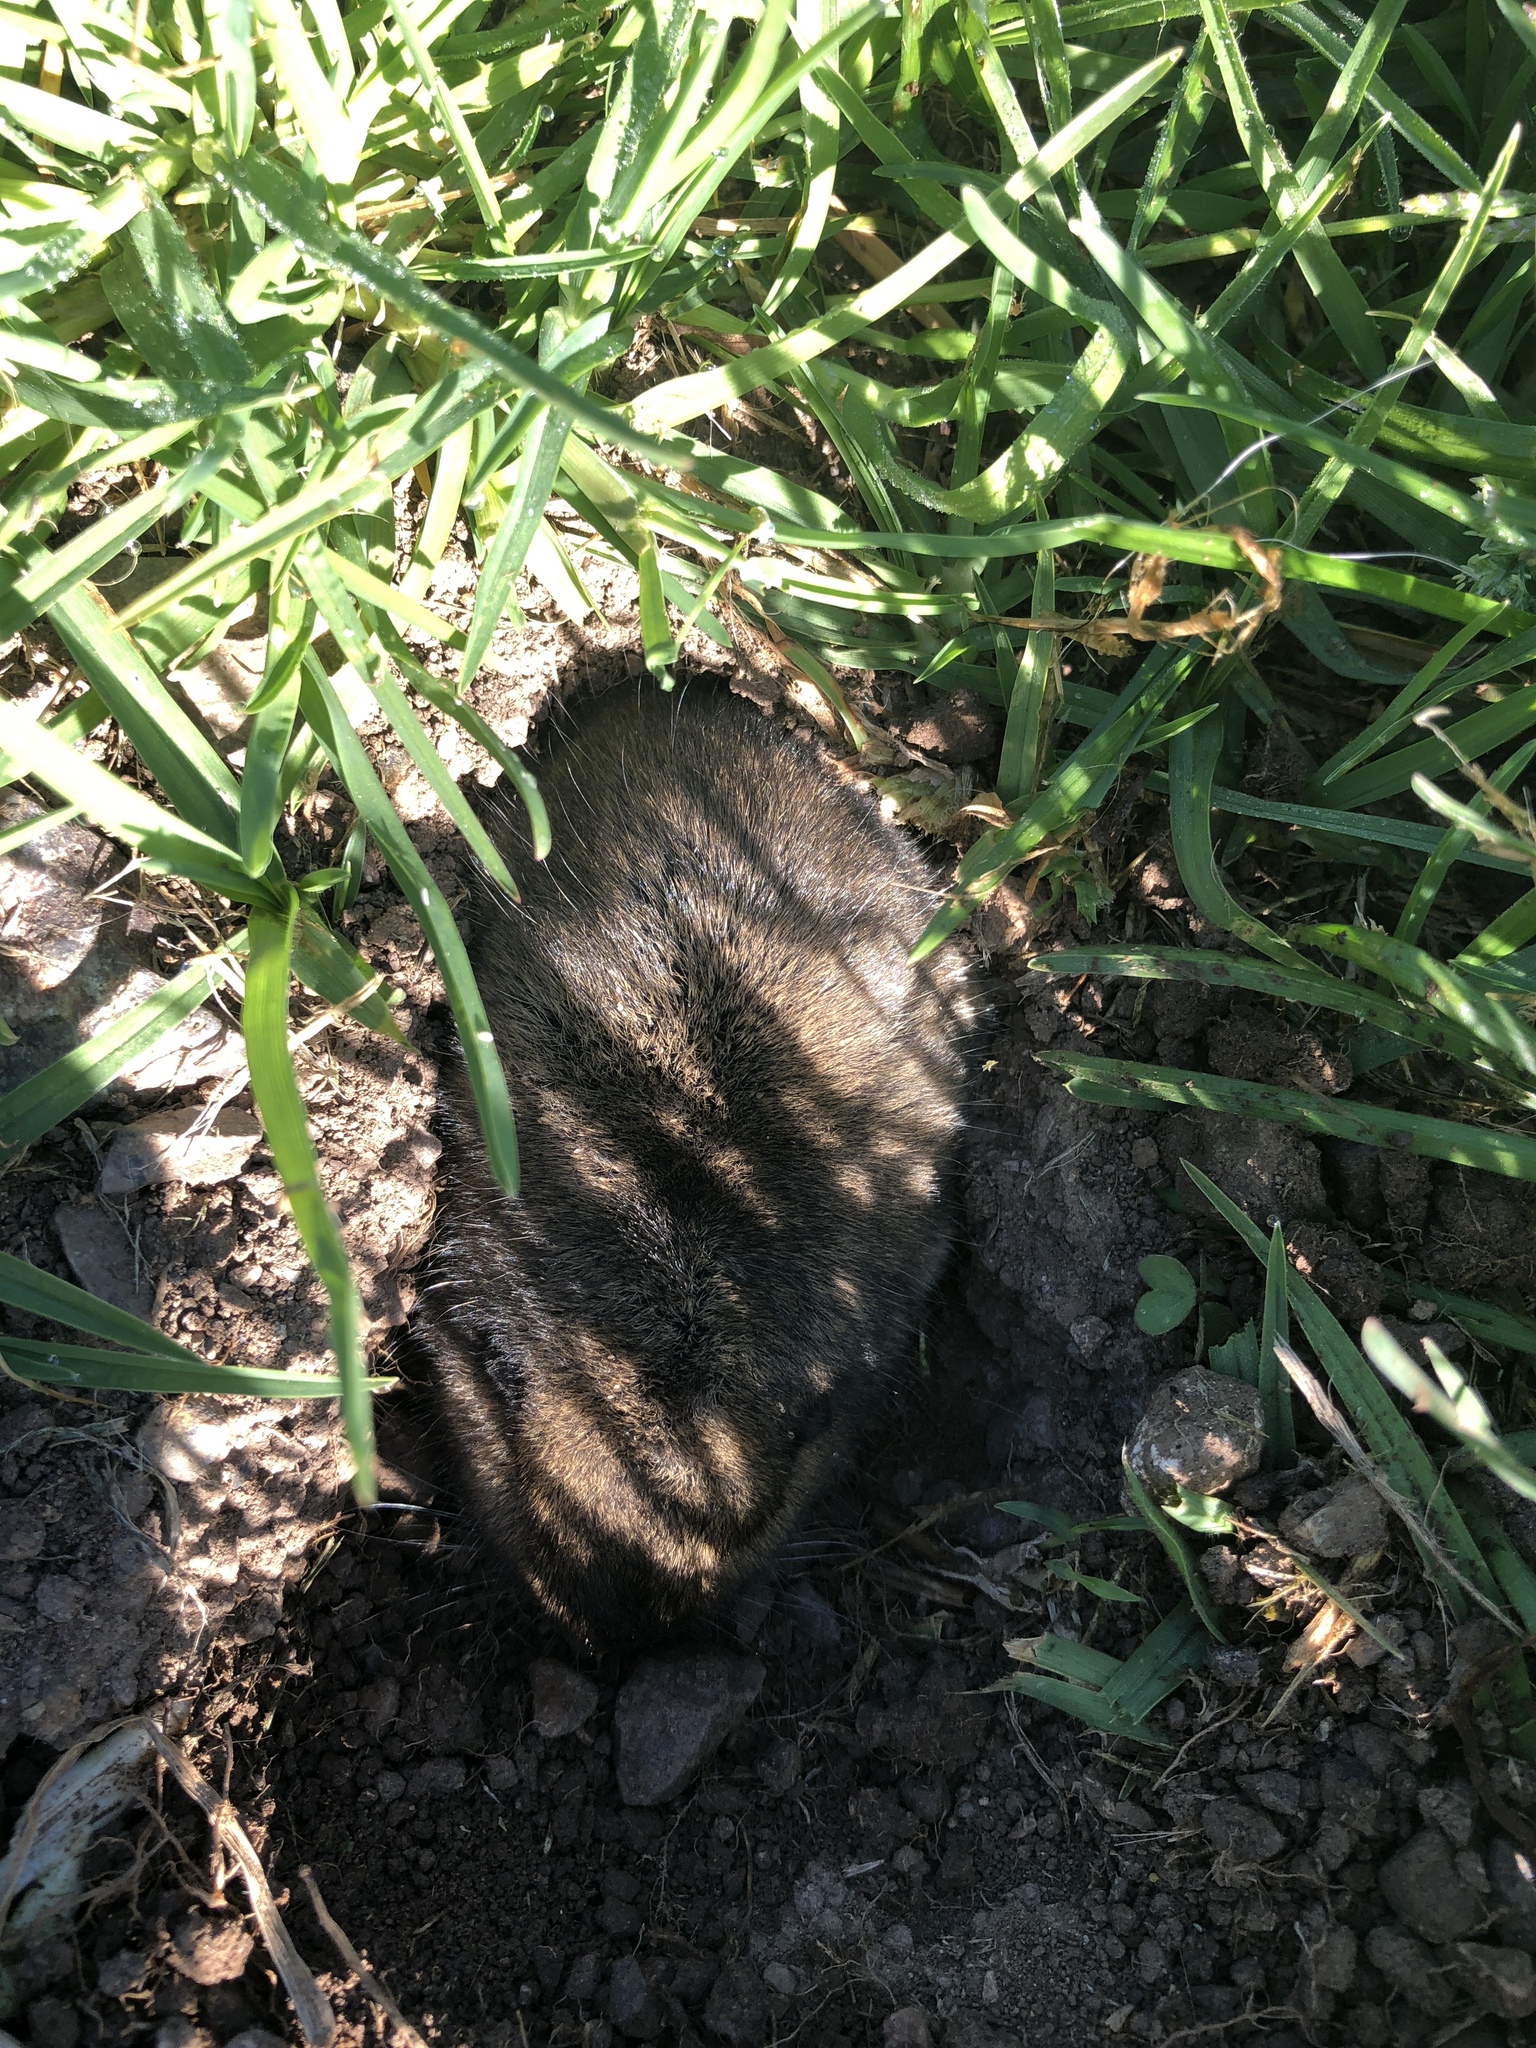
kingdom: Animalia
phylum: Chordata
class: Mammalia
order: Rodentia
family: Geomyidae
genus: Thomomys
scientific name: Thomomys bottae
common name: Botta's pocket gopher
